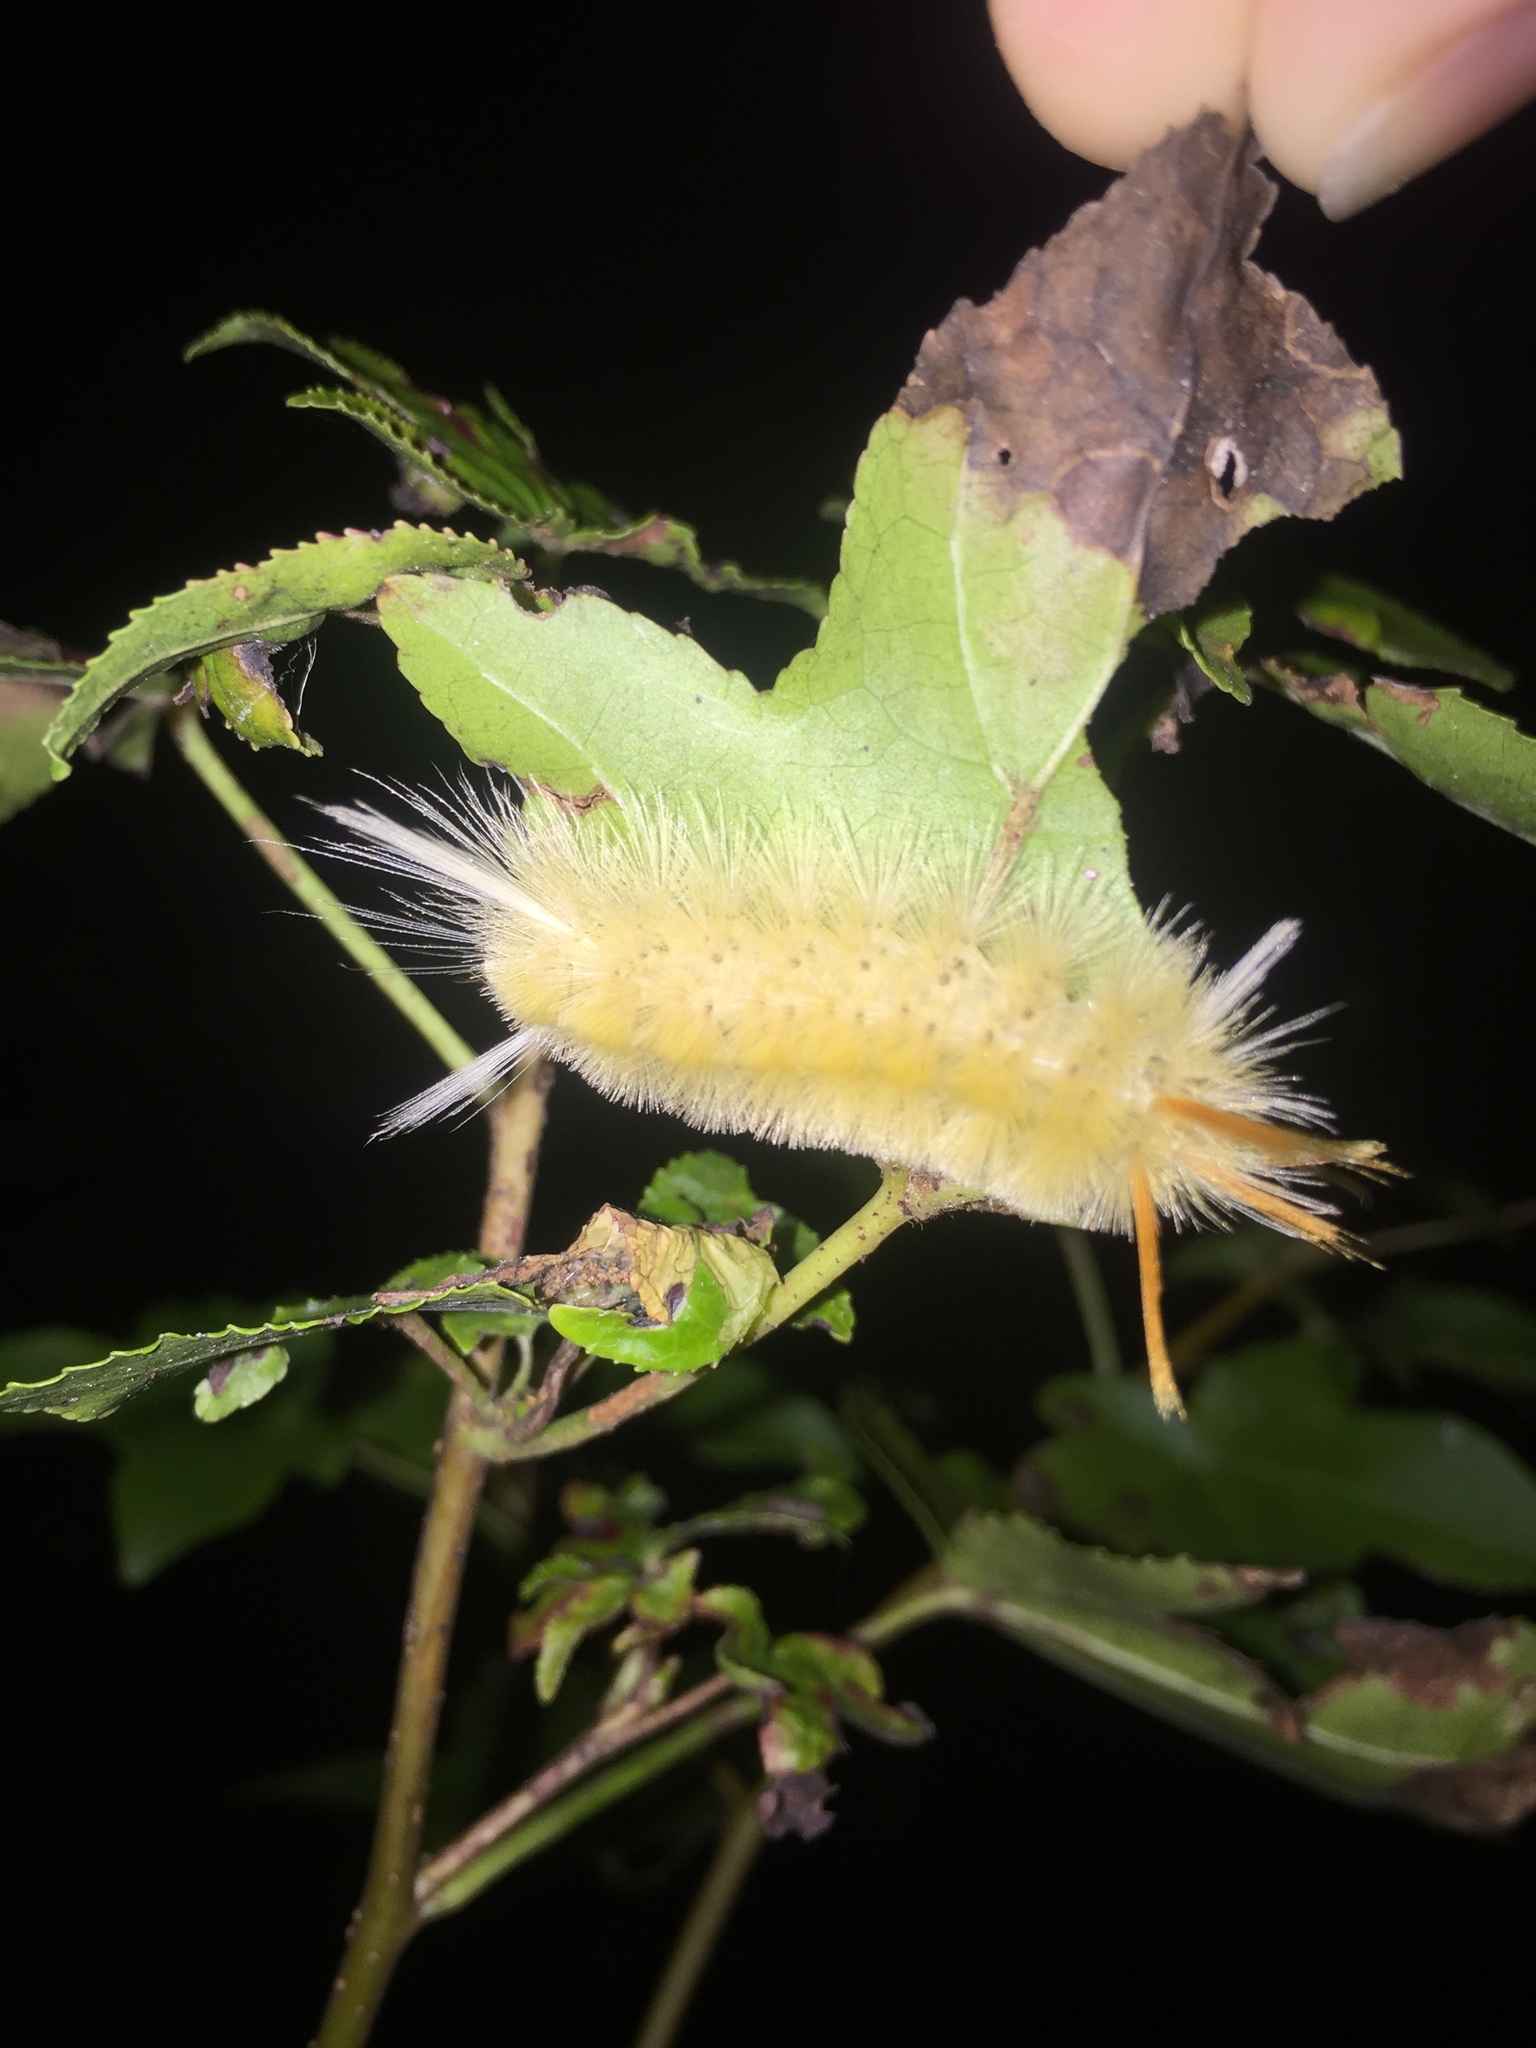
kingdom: Animalia
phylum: Arthropoda
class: Insecta
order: Lepidoptera
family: Erebidae
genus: Halysidota
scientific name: Halysidota harrisii
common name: Sycamore tussock moth
